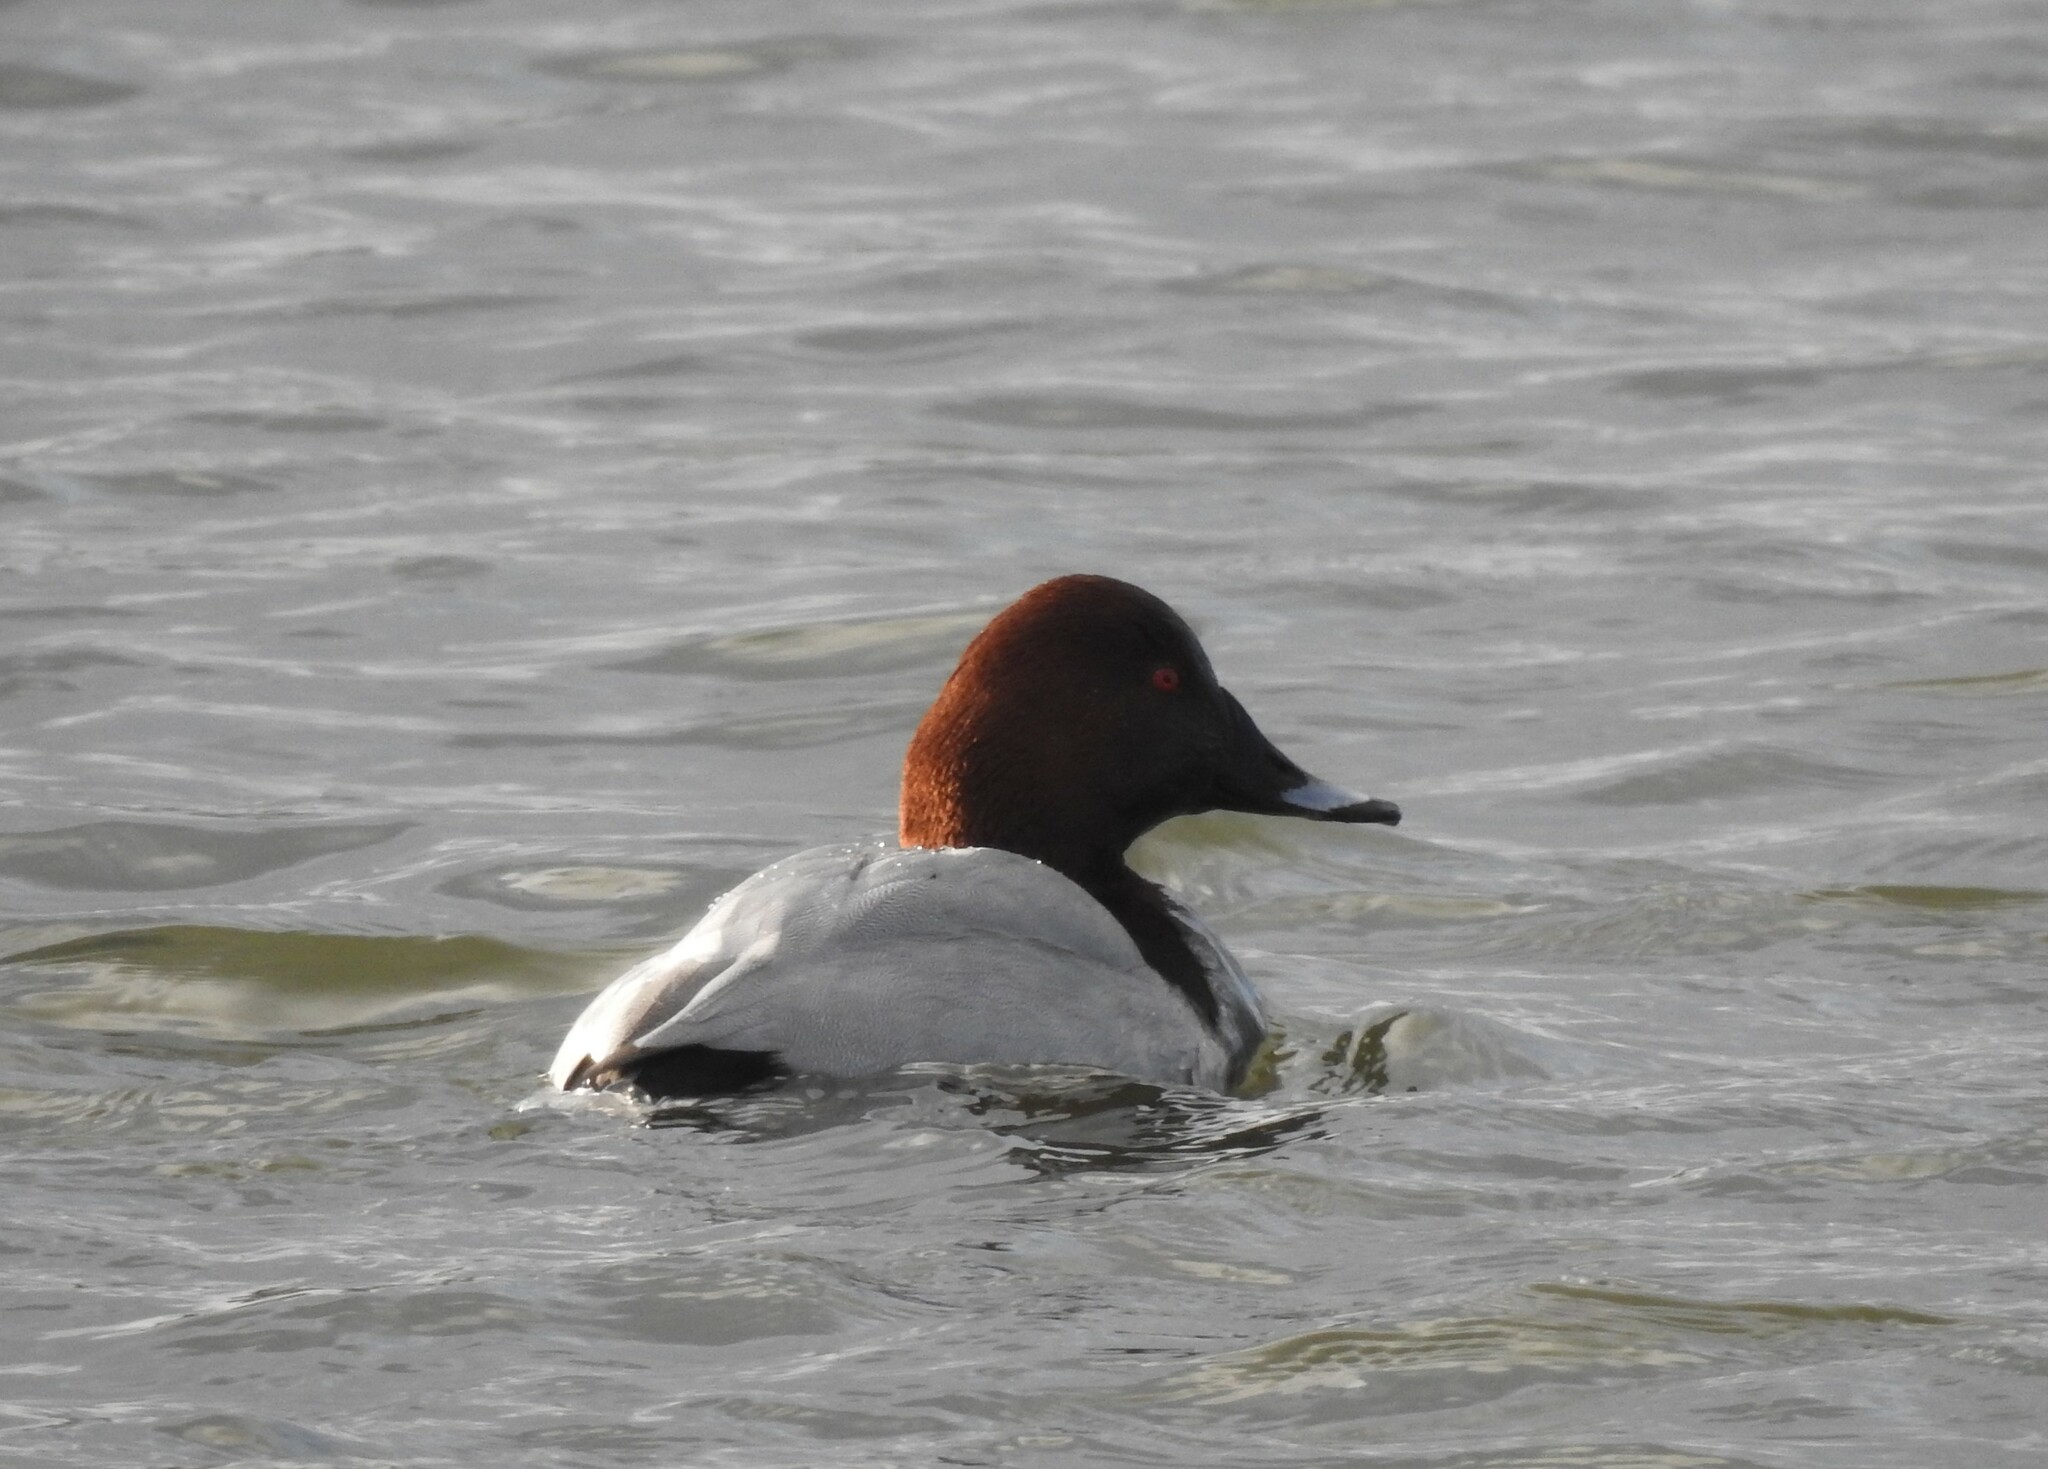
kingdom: Animalia
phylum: Chordata
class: Aves
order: Anseriformes
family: Anatidae
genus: Aythya
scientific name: Aythya ferina
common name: Common pochard
